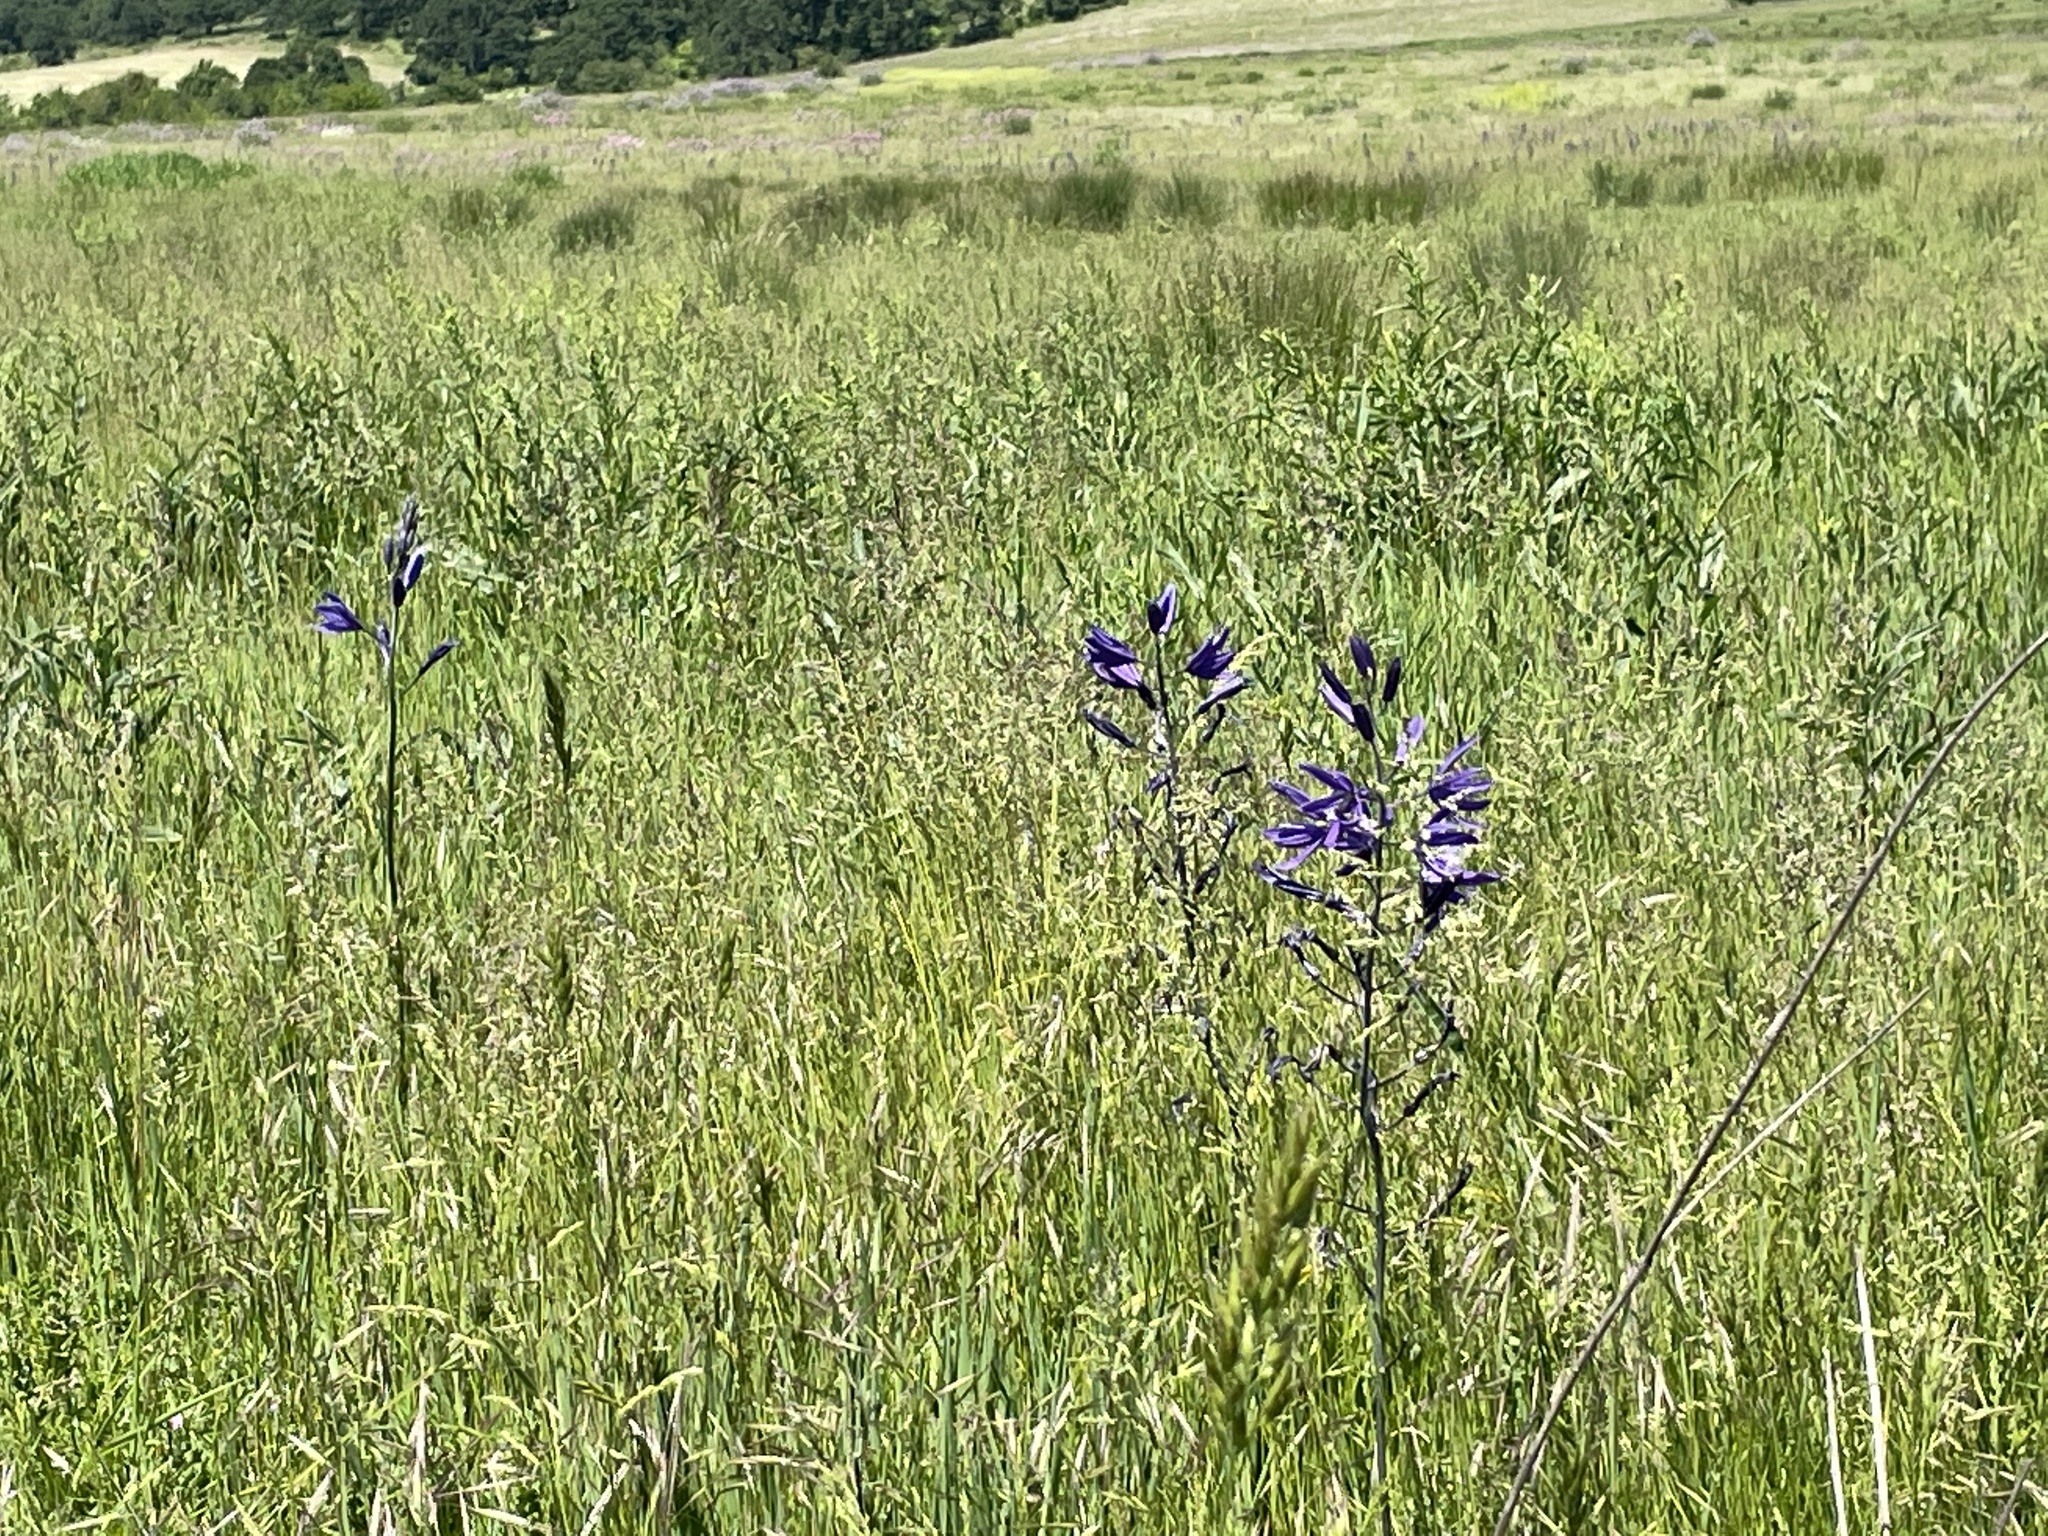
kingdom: Plantae
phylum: Tracheophyta
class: Liliopsida
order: Asparagales
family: Asparagaceae
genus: Camassia
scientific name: Camassia leichtlinii
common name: Leichtlin's camas
